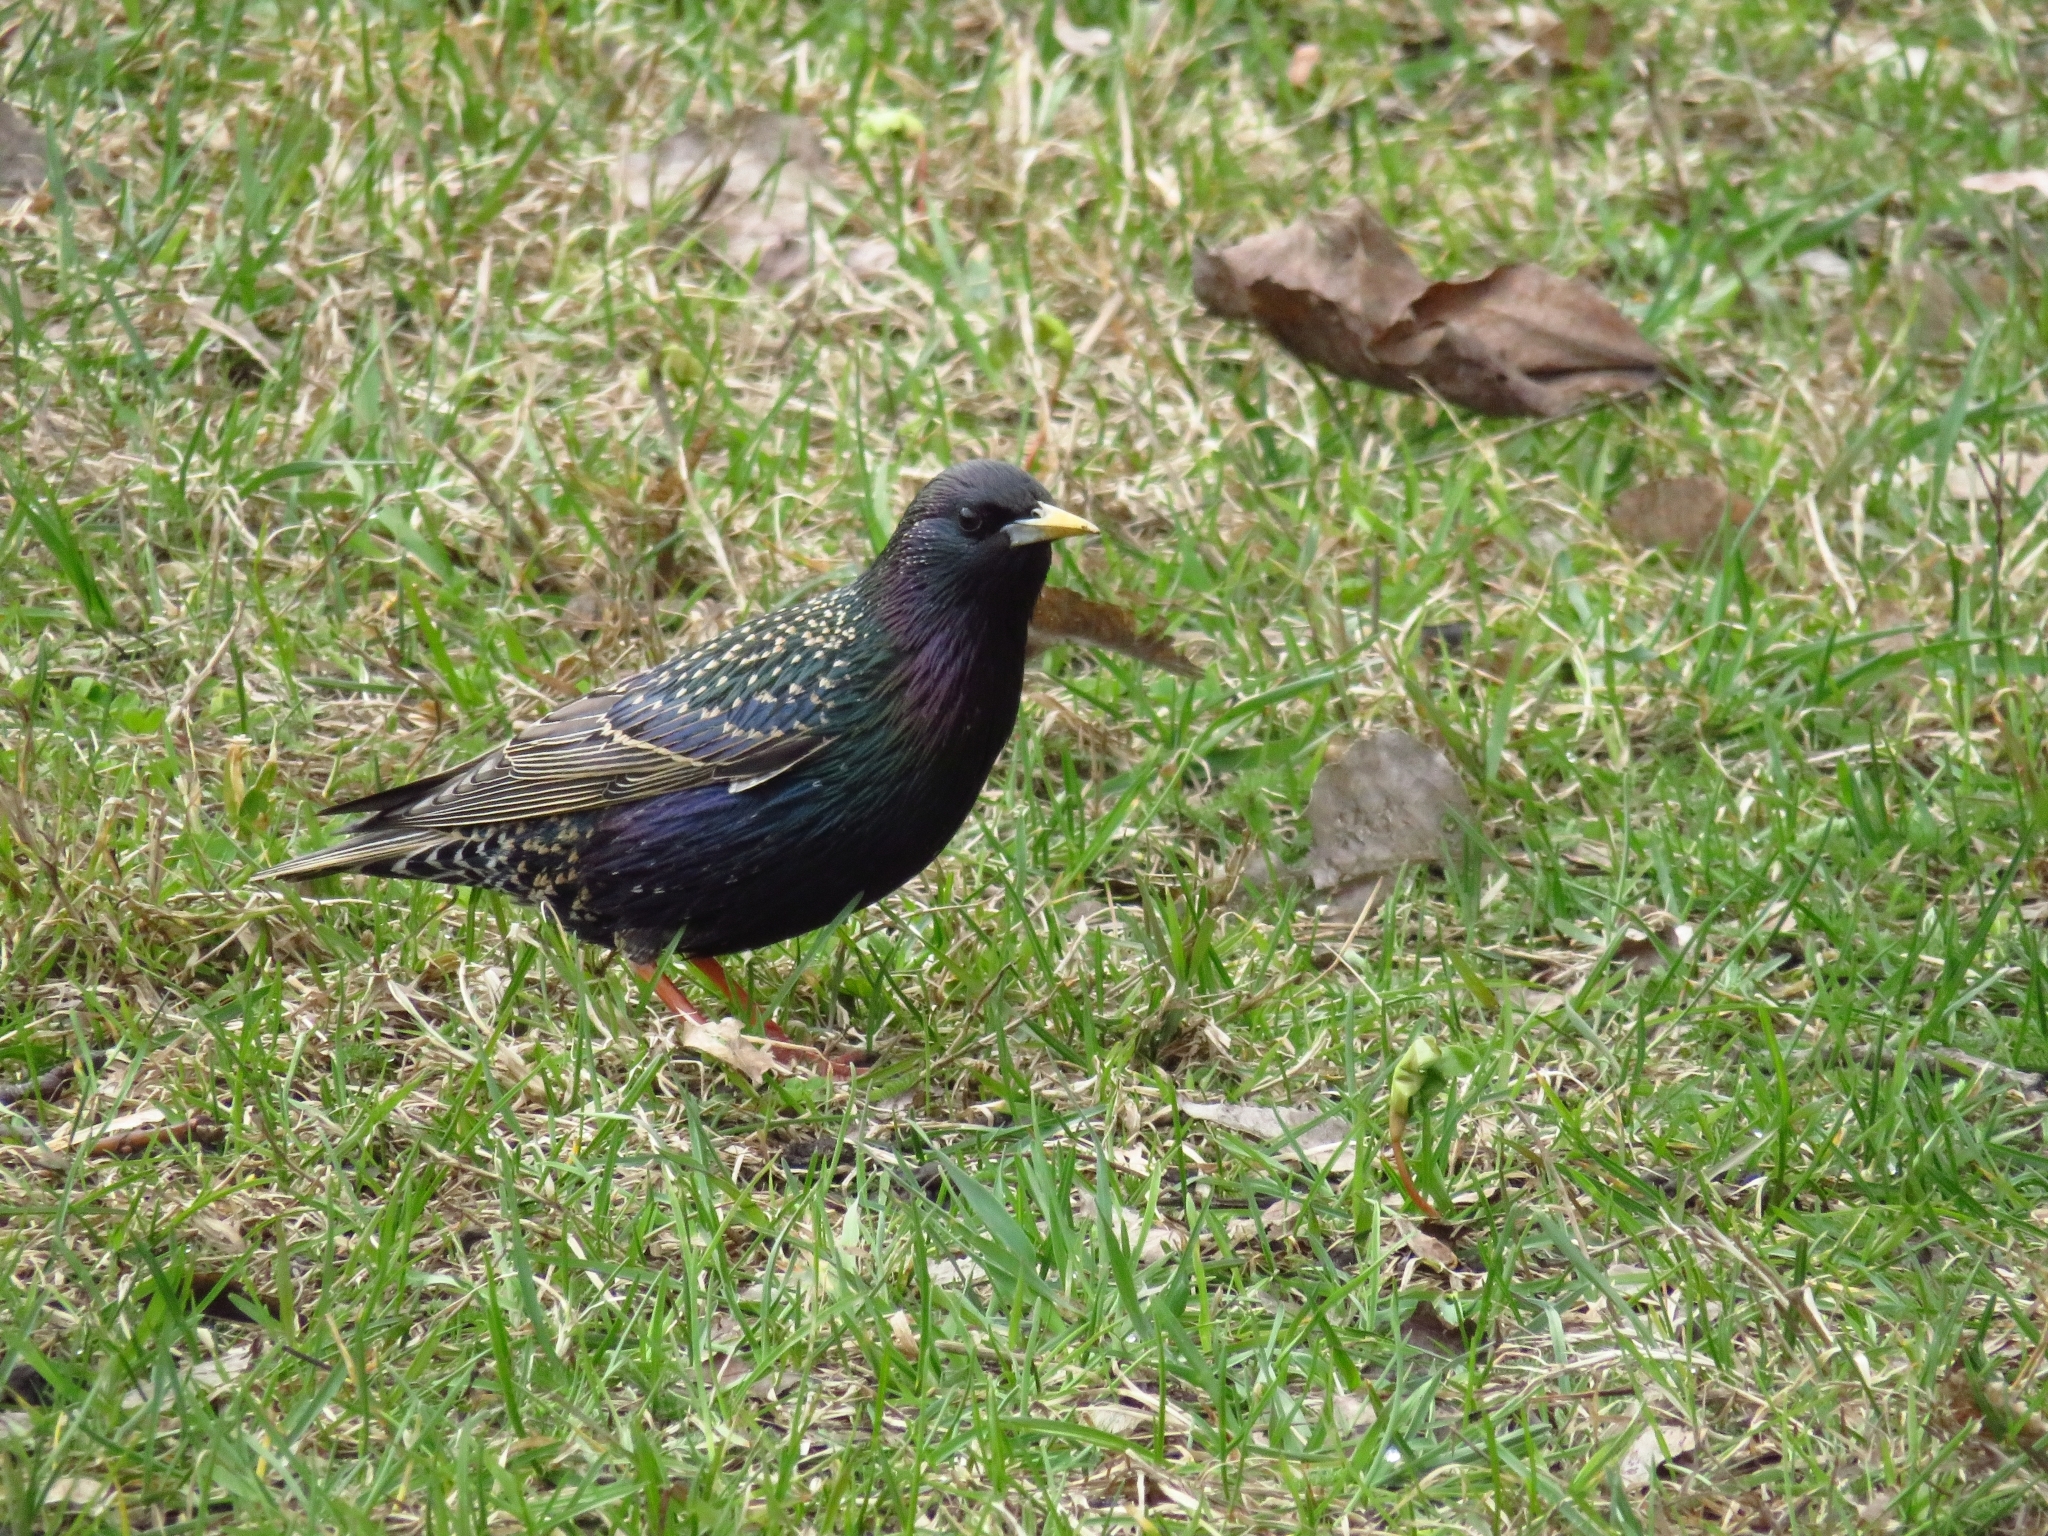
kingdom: Animalia
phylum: Chordata
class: Aves
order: Passeriformes
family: Sturnidae
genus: Sturnus
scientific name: Sturnus vulgaris
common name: Common starling
